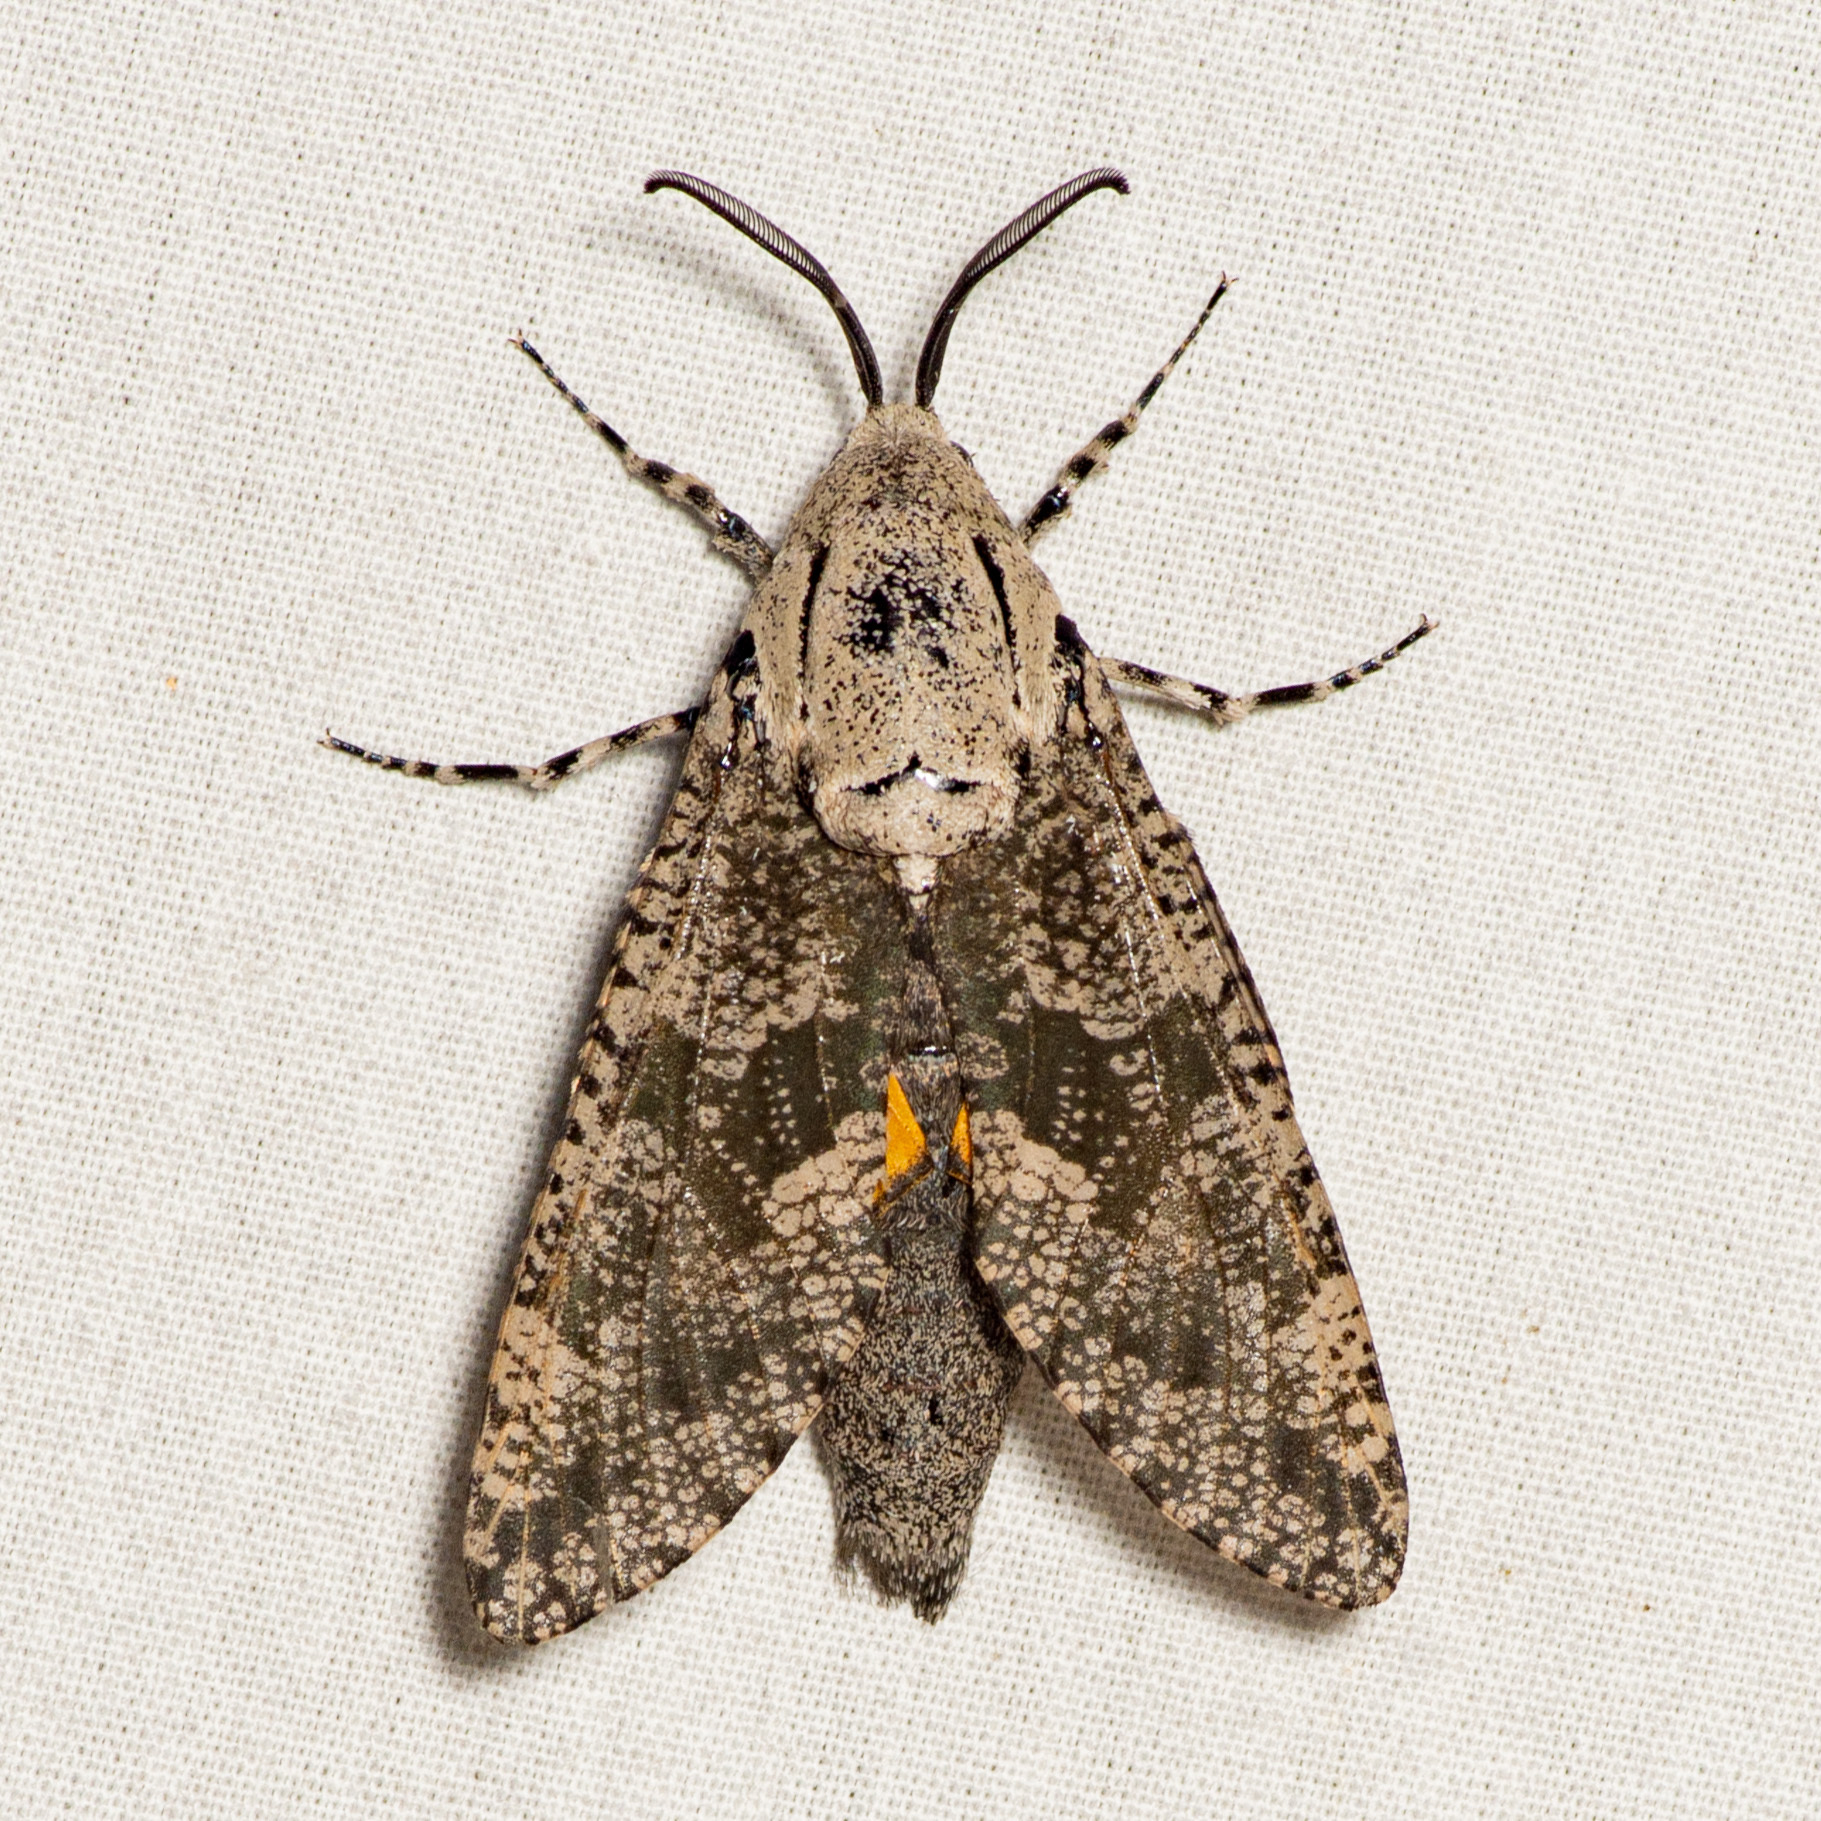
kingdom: Animalia
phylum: Arthropoda
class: Insecta
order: Lepidoptera
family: Cossidae
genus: Prionoxystus
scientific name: Prionoxystus robiniae
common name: Carpenterworm
